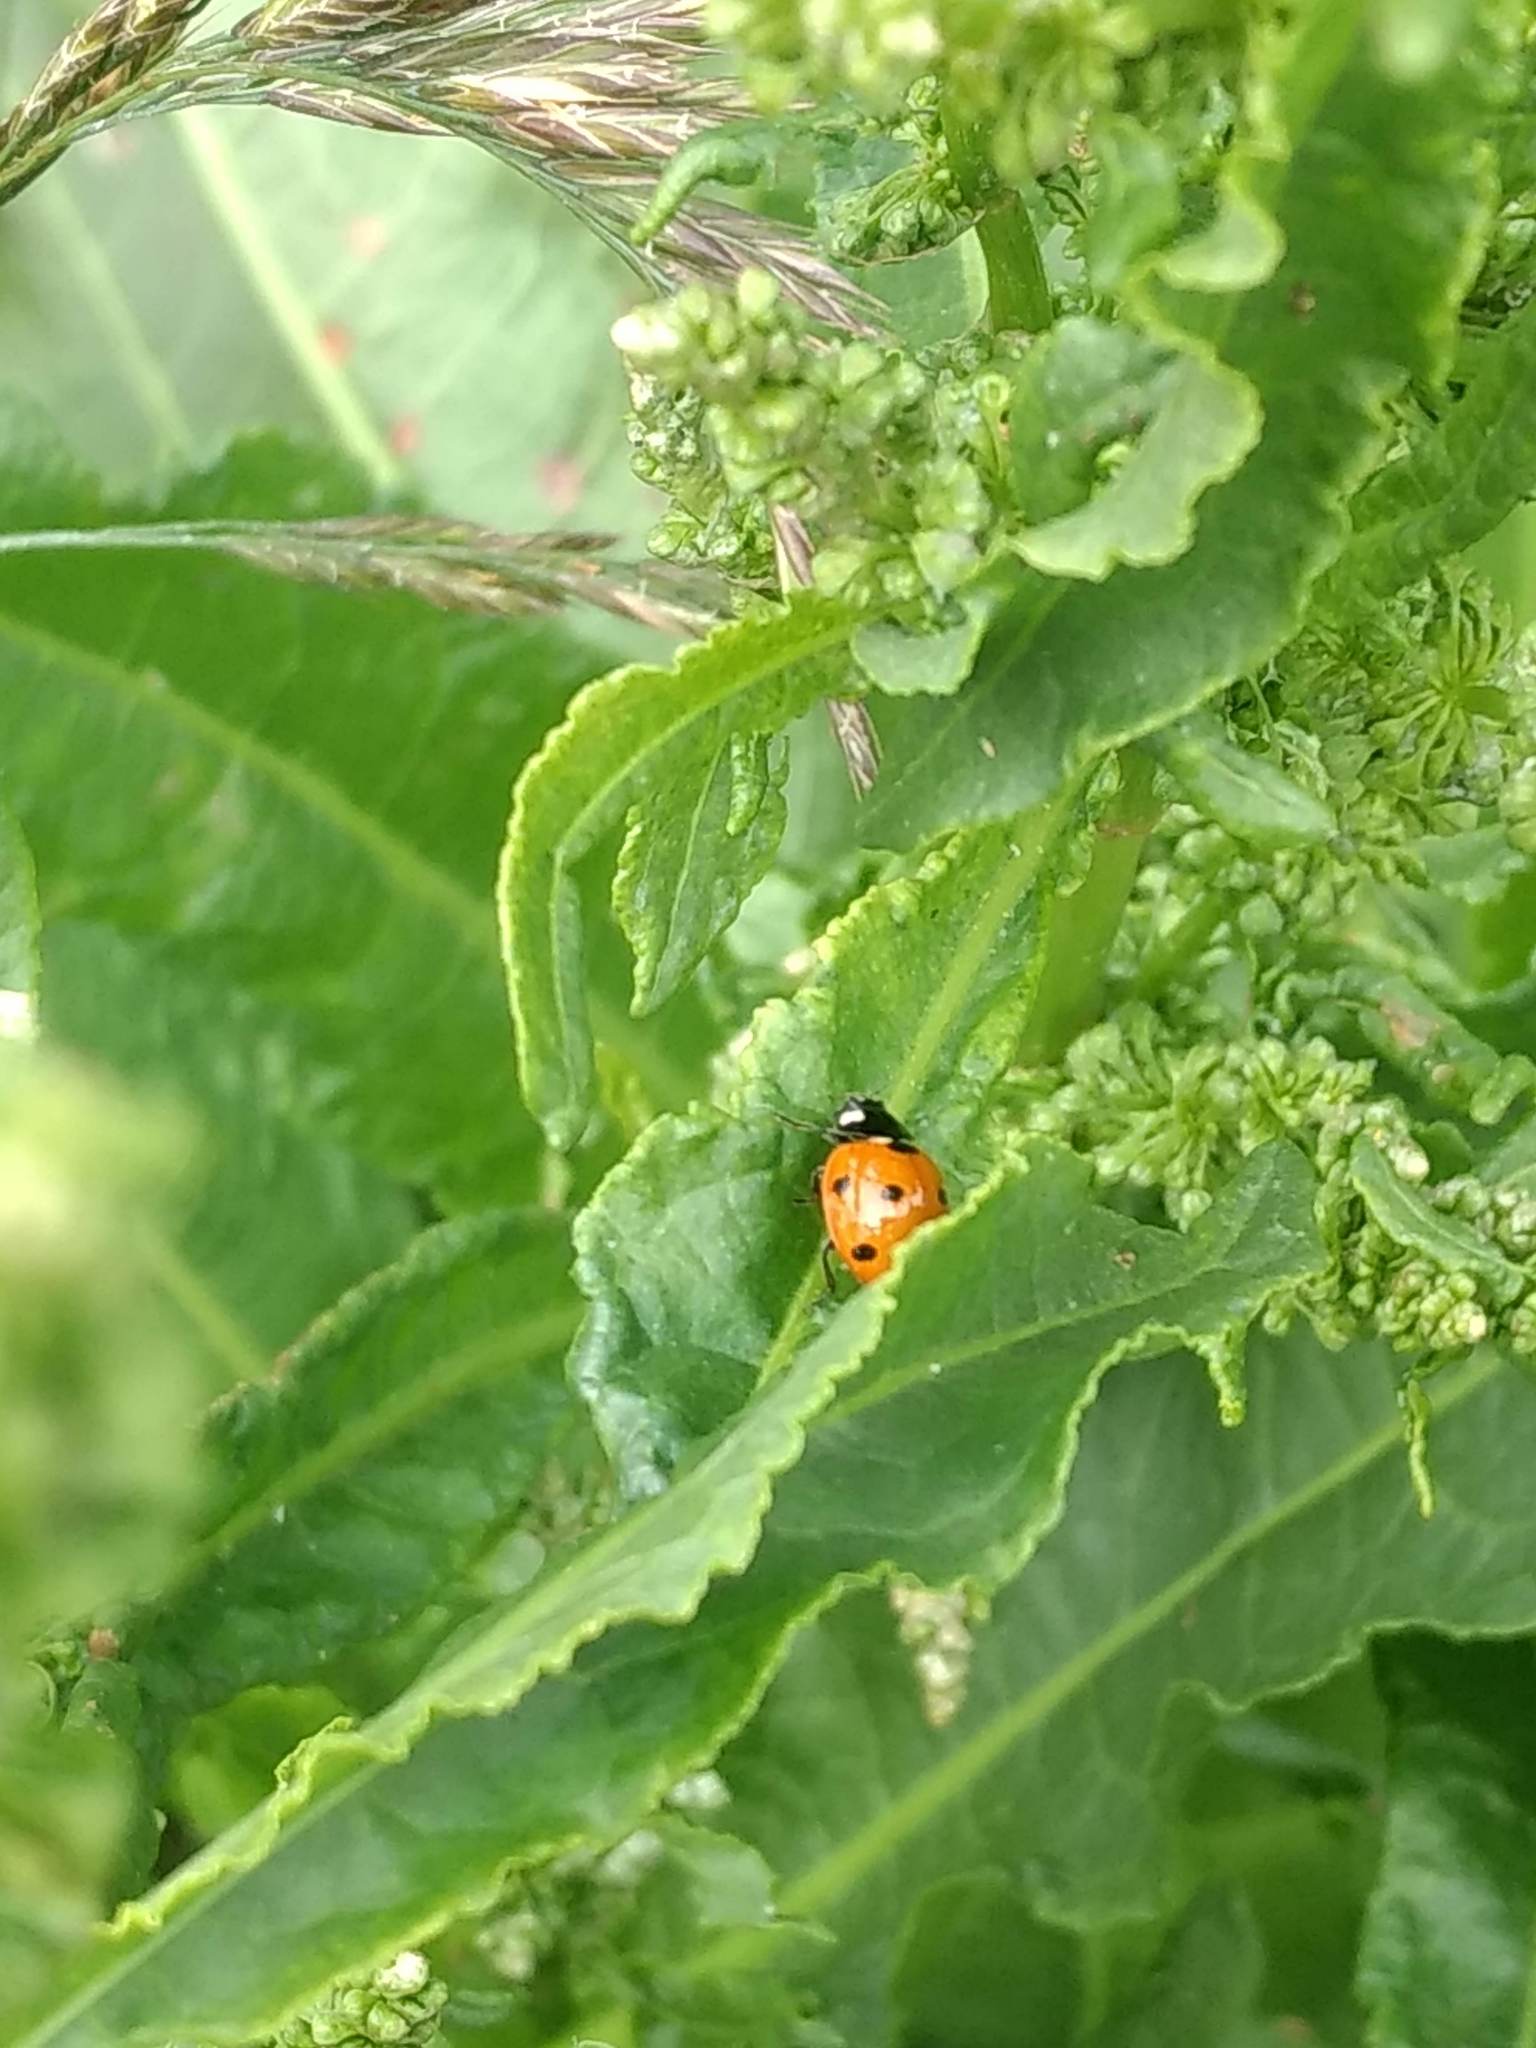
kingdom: Animalia
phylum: Arthropoda
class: Insecta
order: Coleoptera
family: Coccinellidae
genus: Coccinella
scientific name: Coccinella septempunctata
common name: Sevenspotted lady beetle
